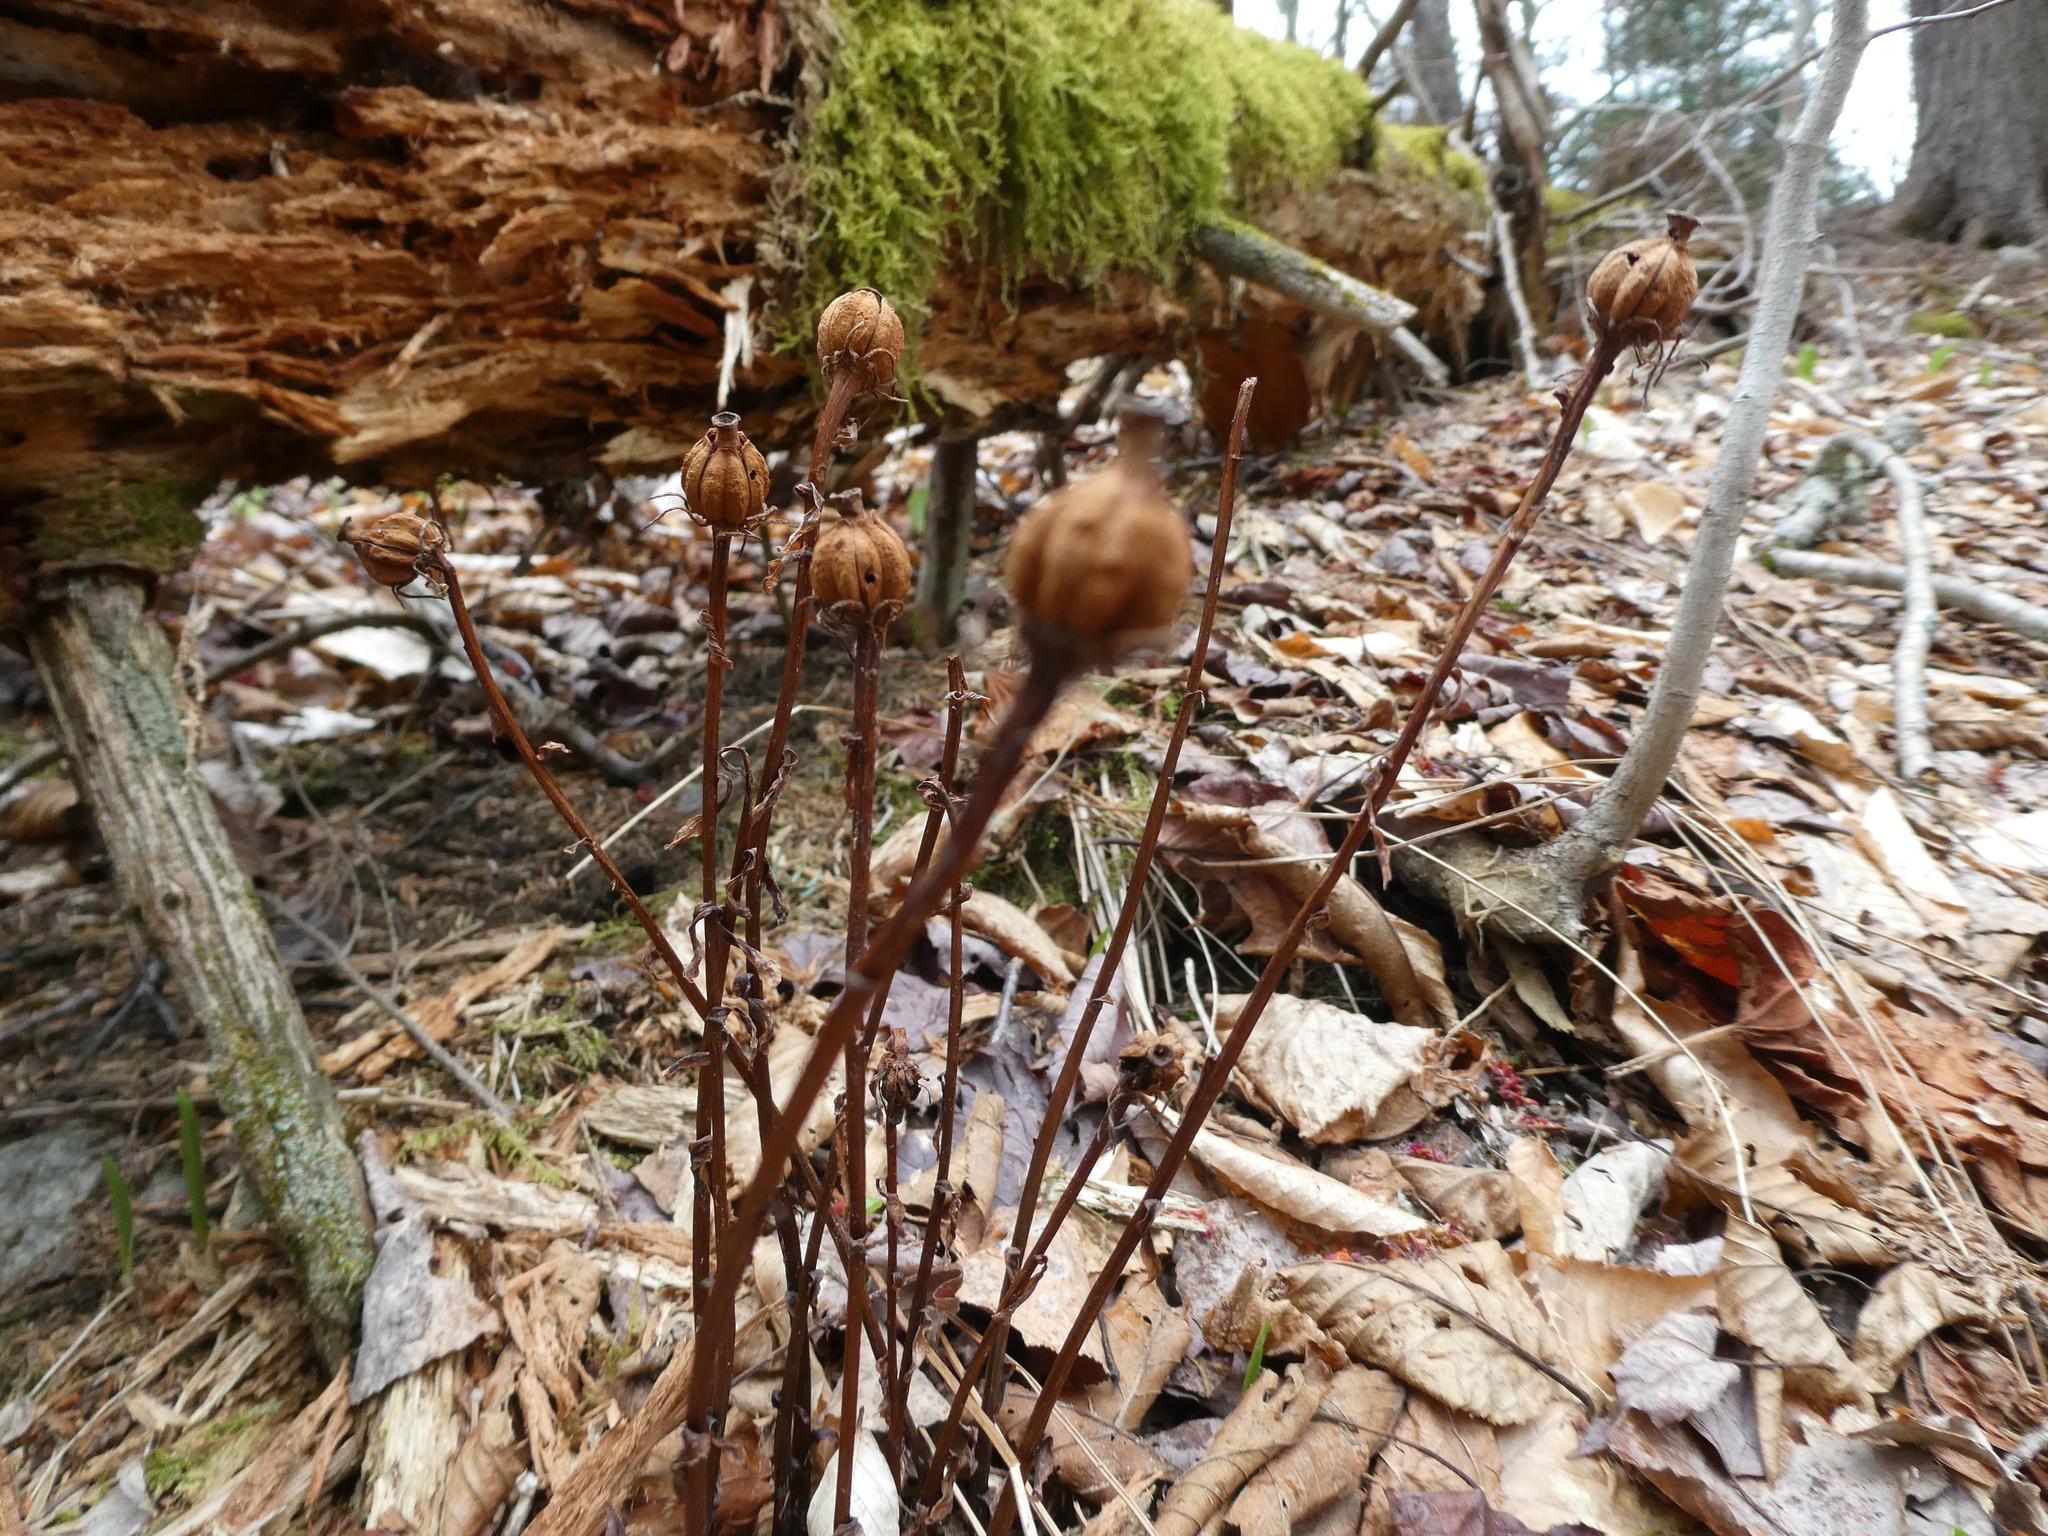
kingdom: Plantae
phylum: Tracheophyta
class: Magnoliopsida
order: Ericales
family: Ericaceae
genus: Monotropa
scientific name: Monotropa uniflora
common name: Convulsion root
